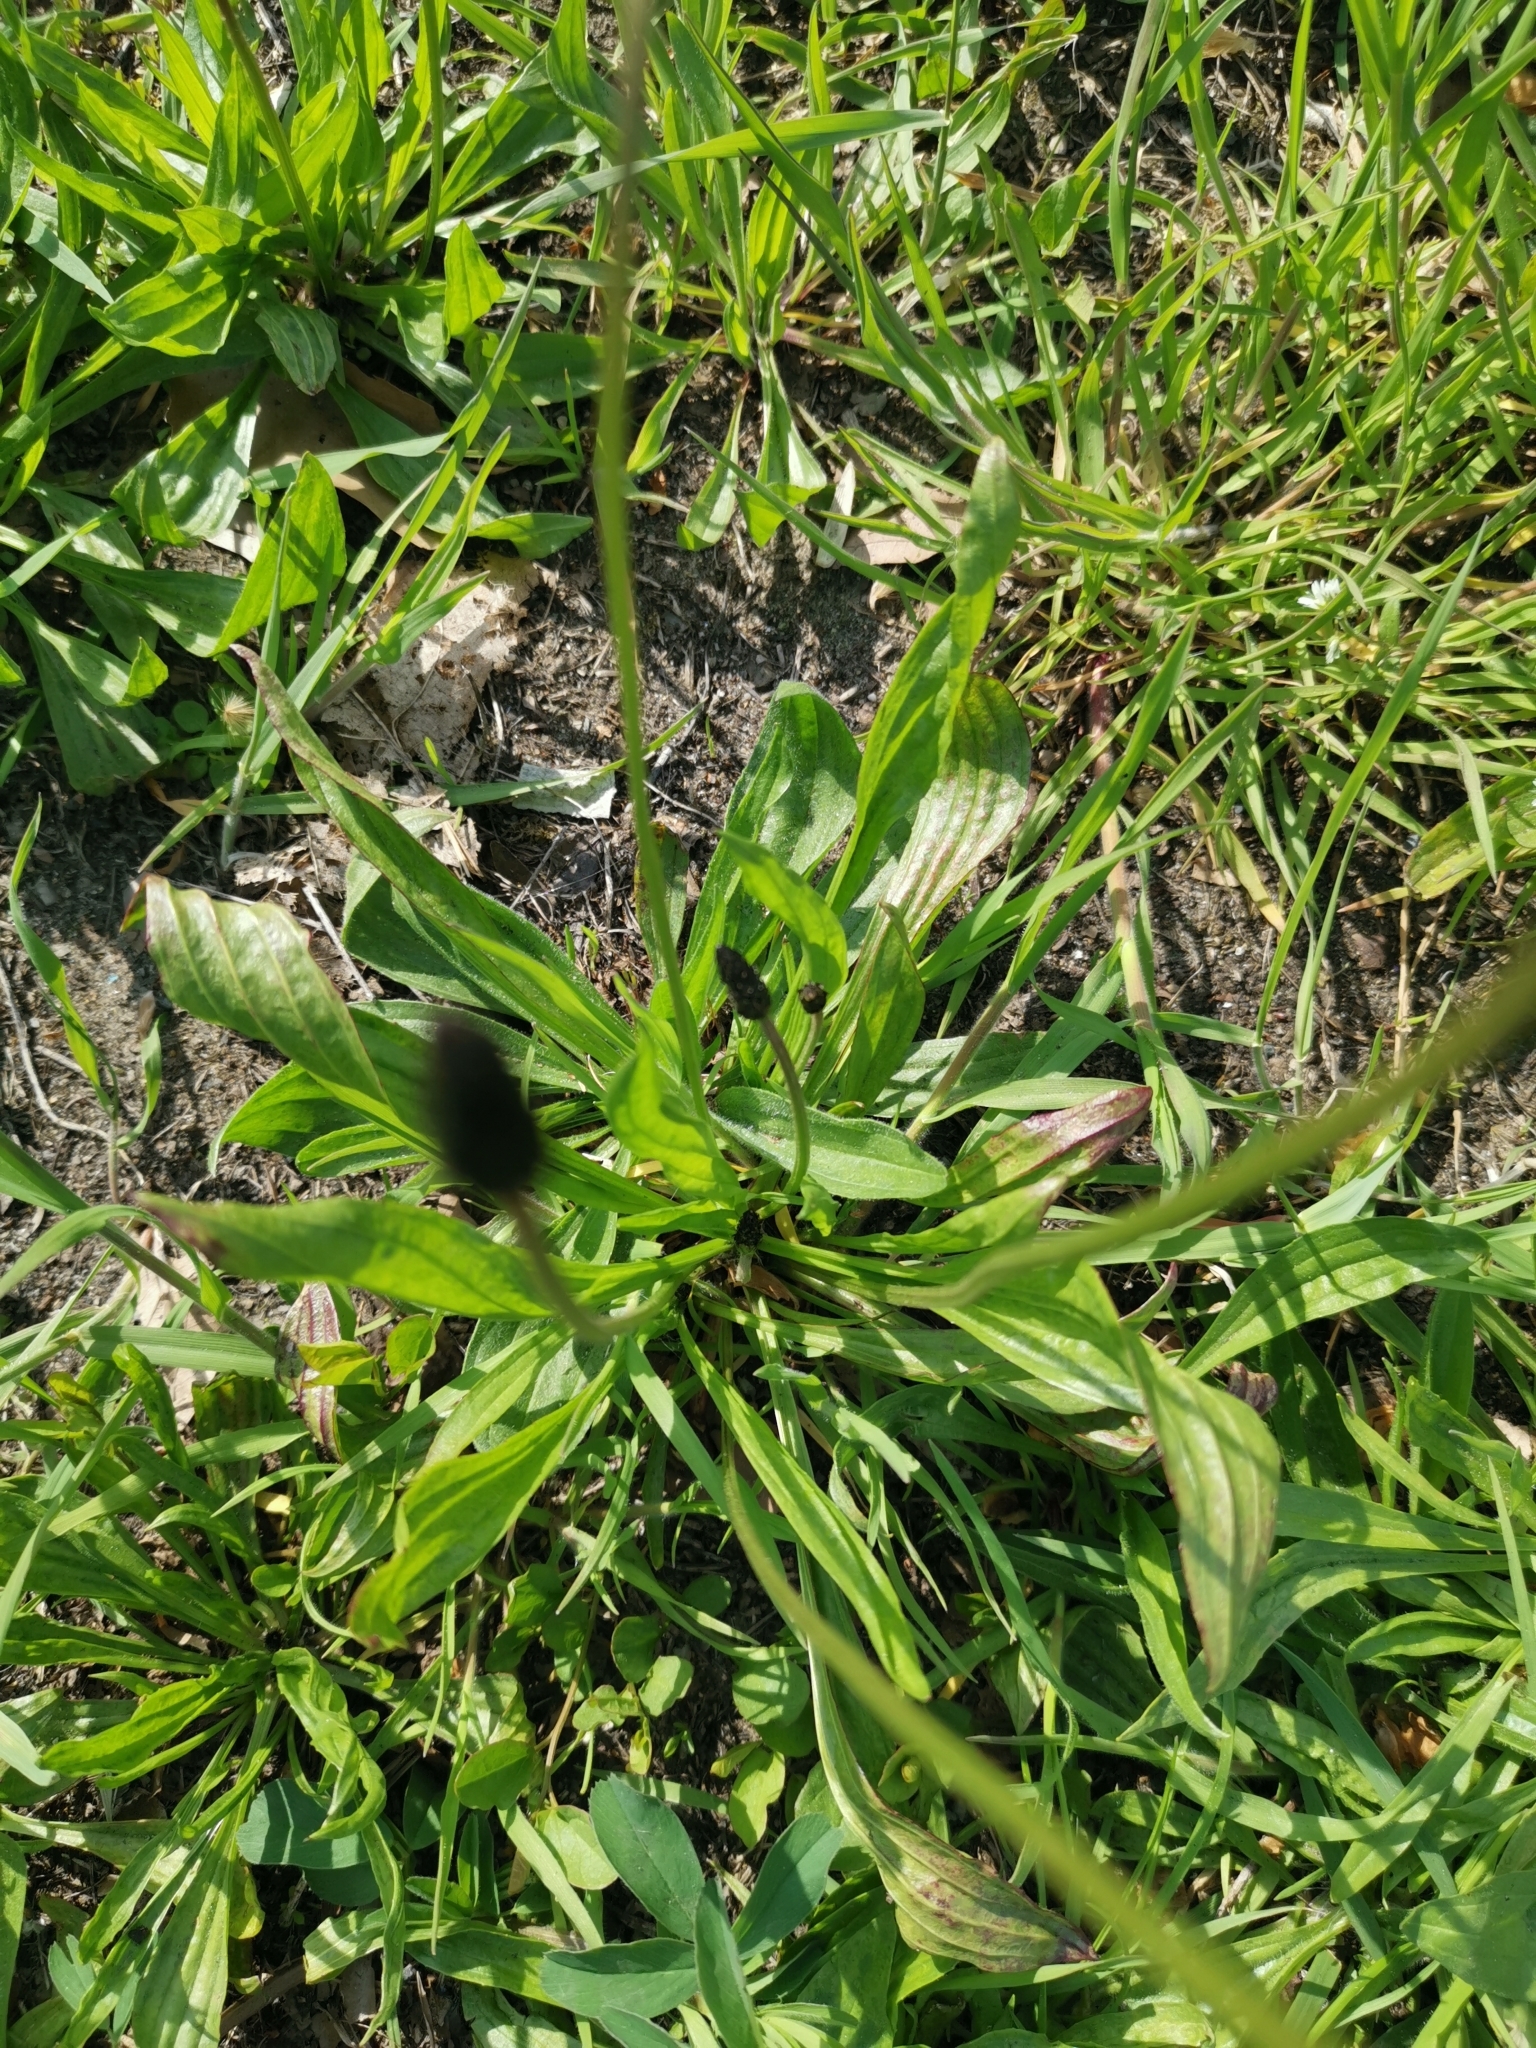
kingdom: Plantae
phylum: Tracheophyta
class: Magnoliopsida
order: Lamiales
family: Plantaginaceae
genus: Plantago
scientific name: Plantago lanceolata
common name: Ribwort plantain
